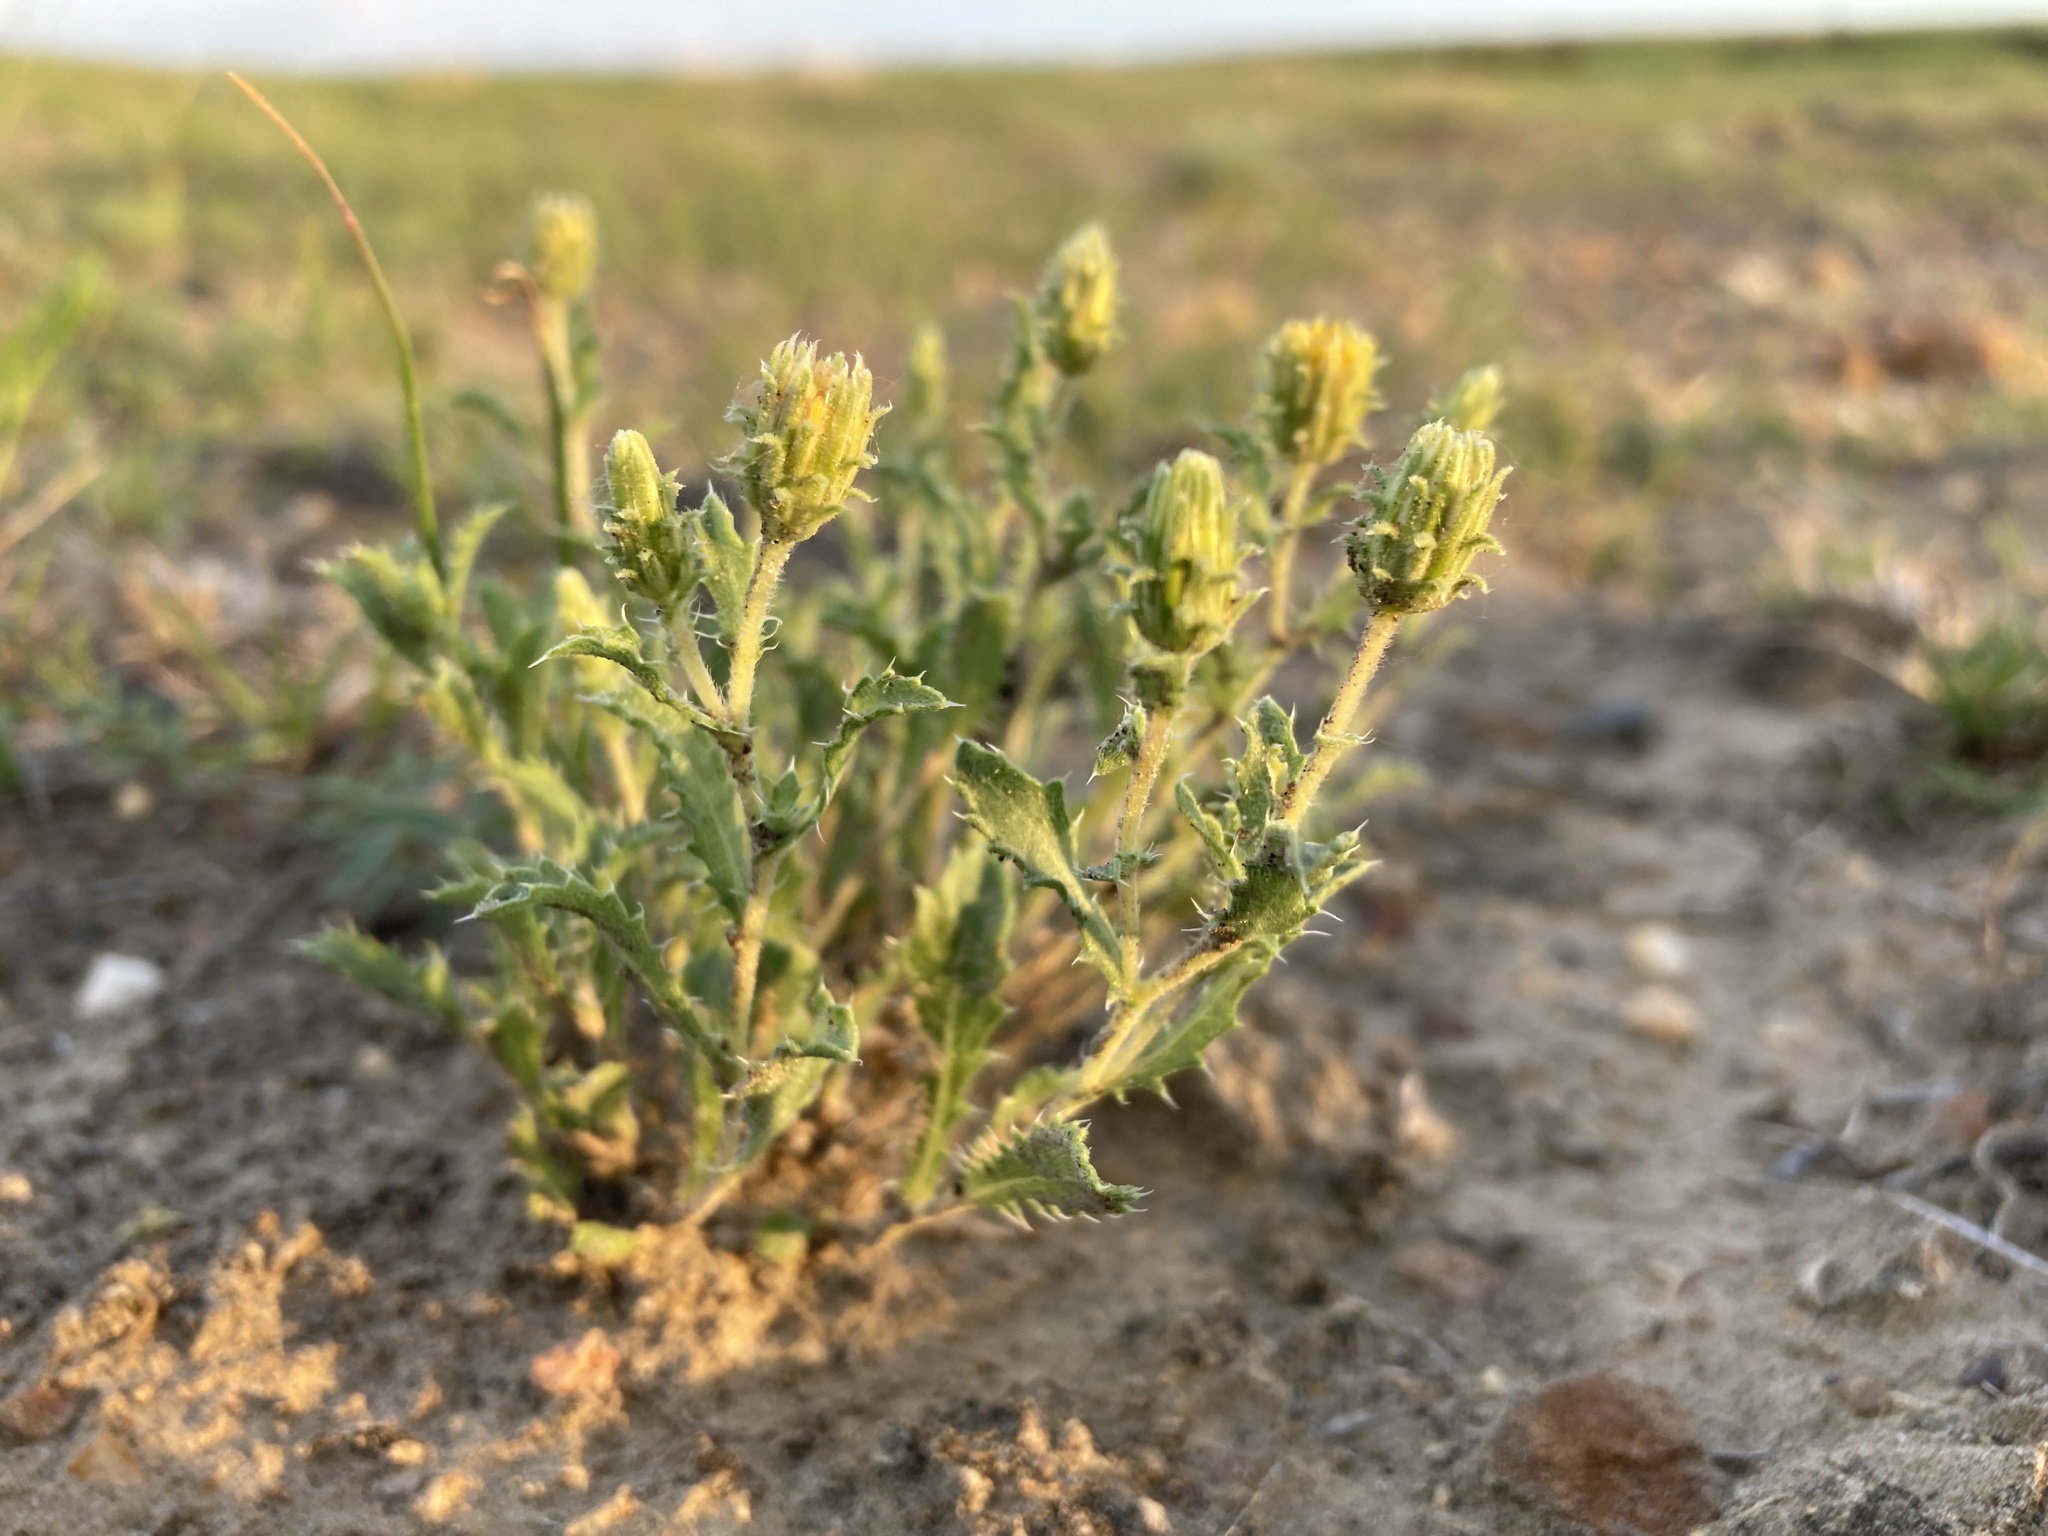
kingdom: Plantae
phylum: Tracheophyta
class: Magnoliopsida
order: Asterales
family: Asteraceae
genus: Xanthisma
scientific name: Xanthisma grindelioides
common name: Goldenweed
